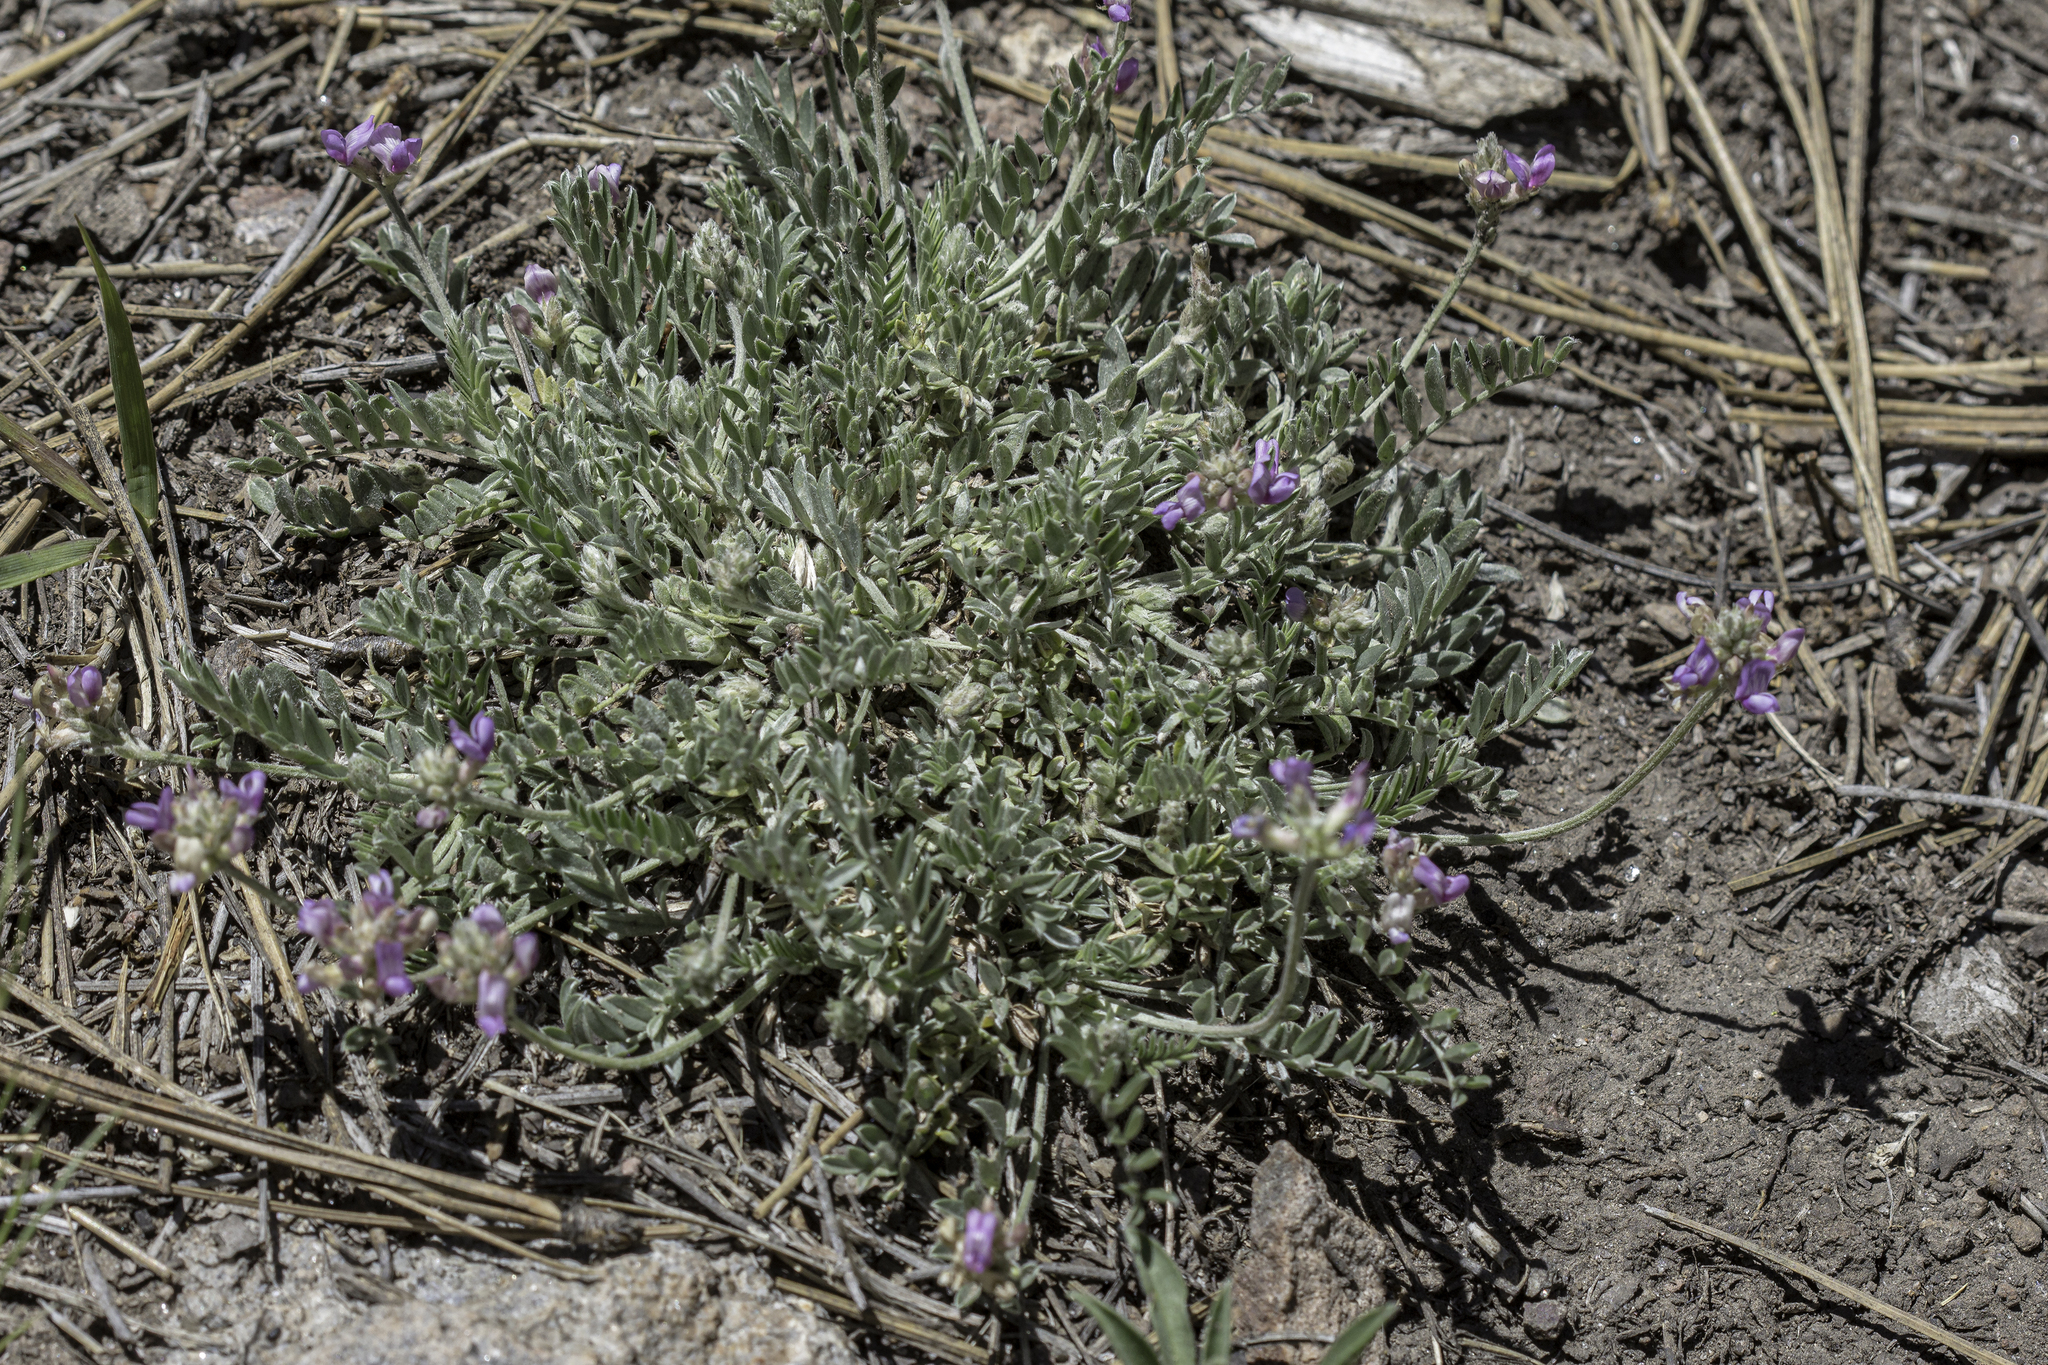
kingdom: Plantae
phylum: Tracheophyta
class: Magnoliopsida
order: Fabales
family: Fabaceae
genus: Astragalus
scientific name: Astragalus gilensis
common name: Gila milk-vetch
